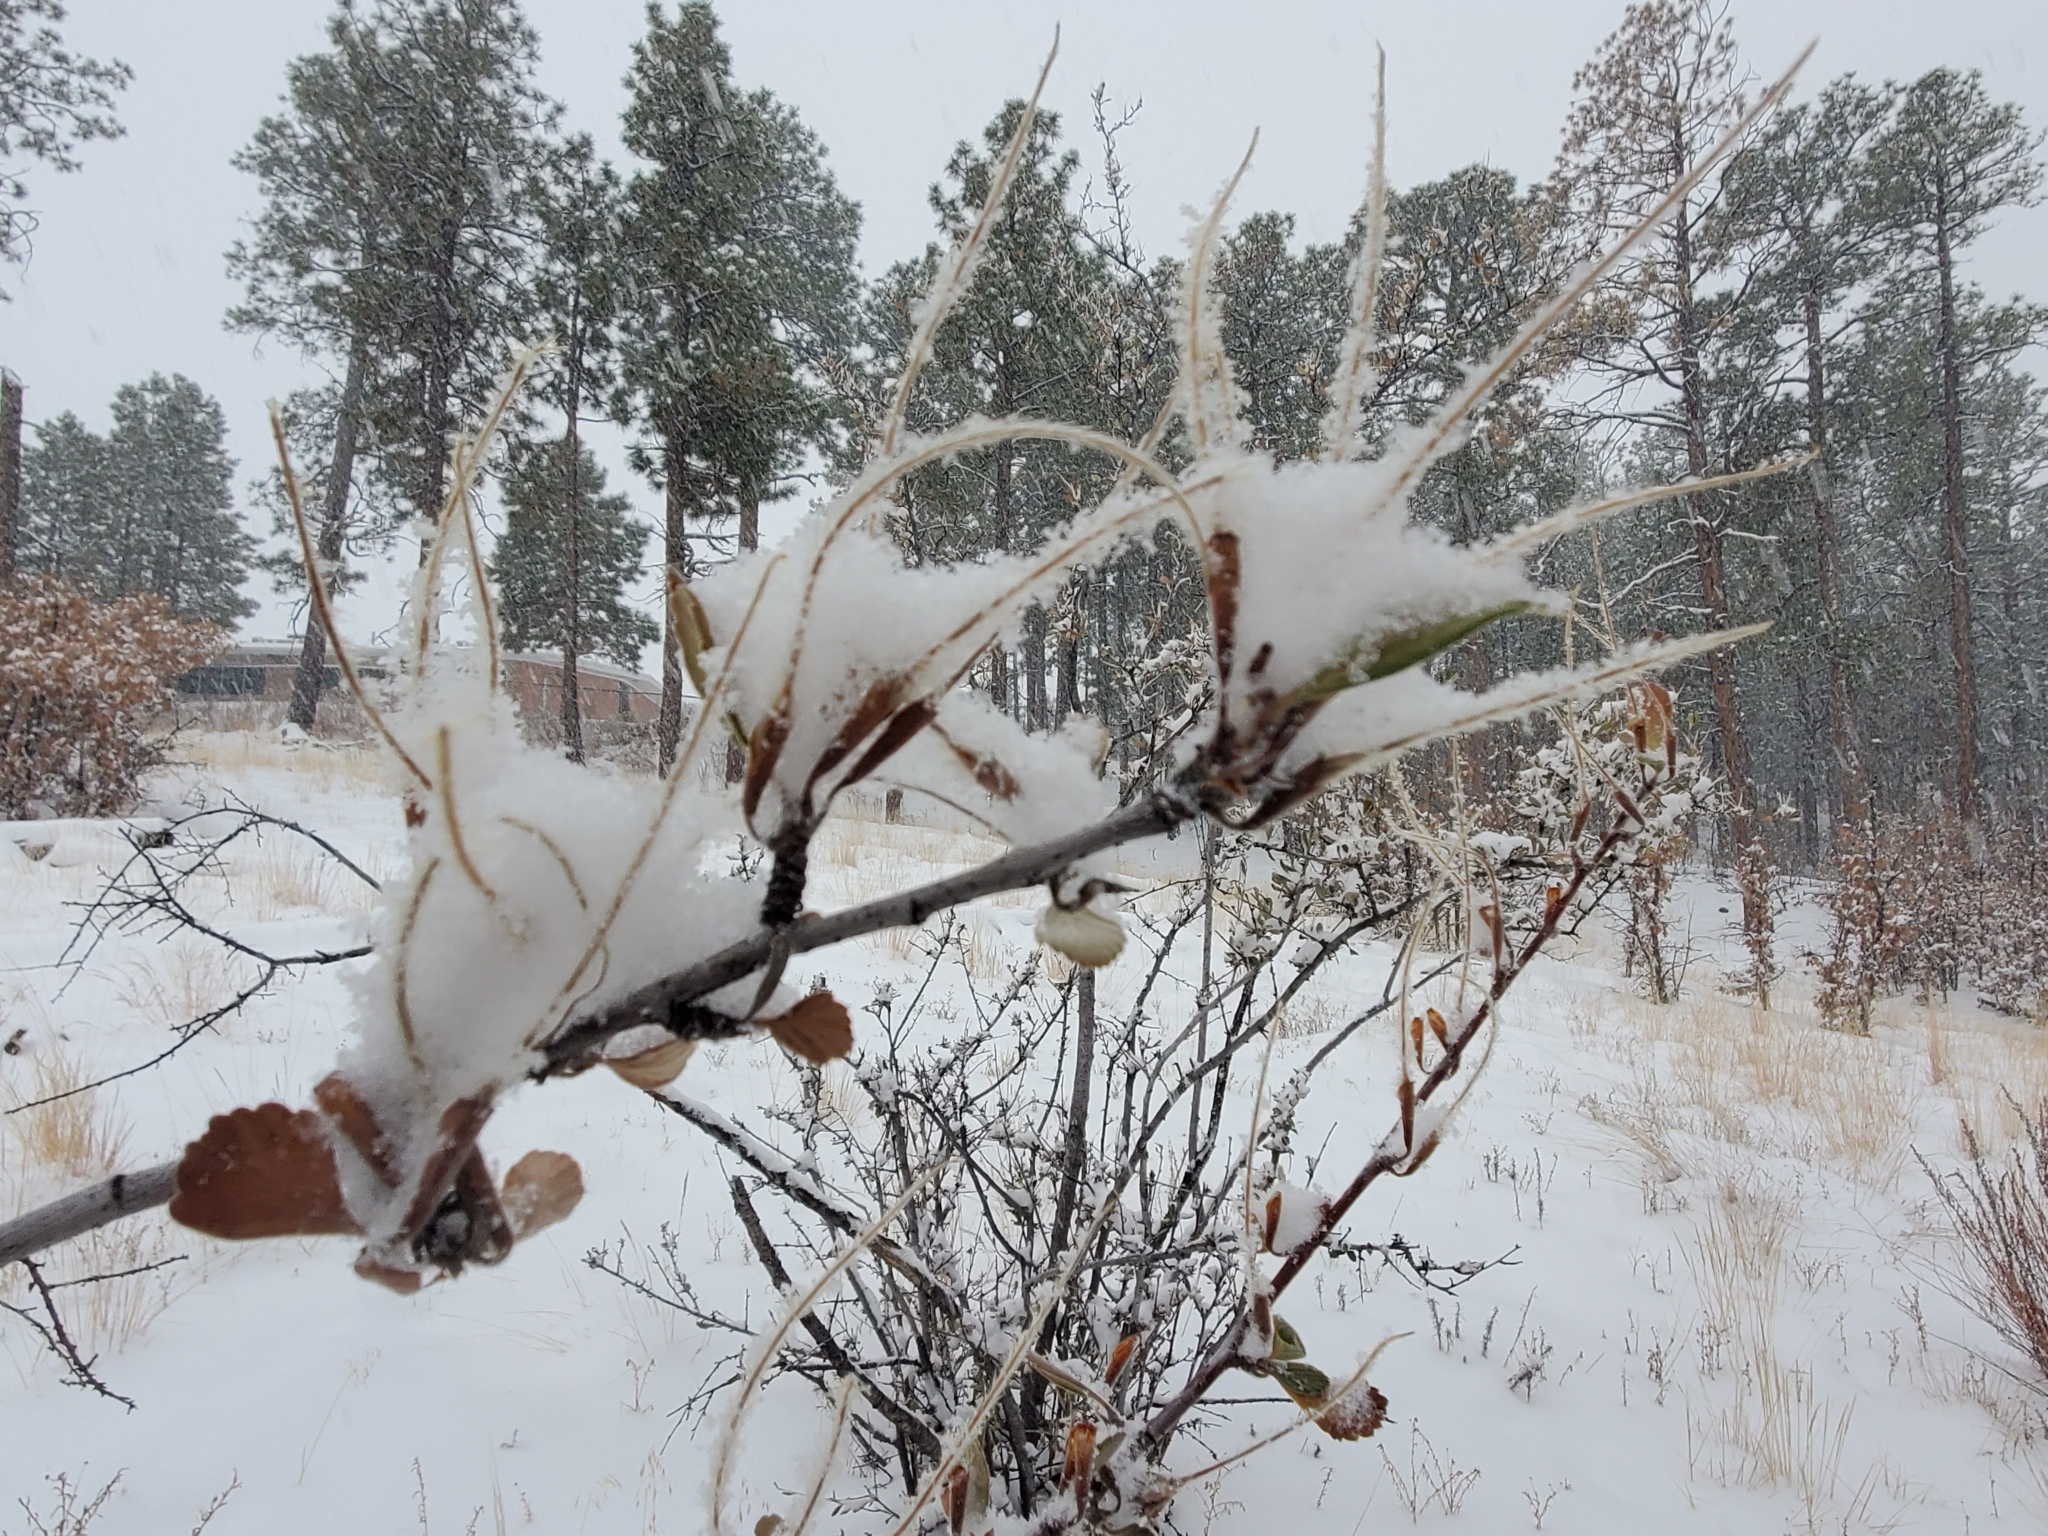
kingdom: Plantae
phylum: Tracheophyta
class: Magnoliopsida
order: Rosales
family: Rosaceae
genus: Cercocarpus
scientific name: Cercocarpus montanus
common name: Alder-leaf cercocarpus
